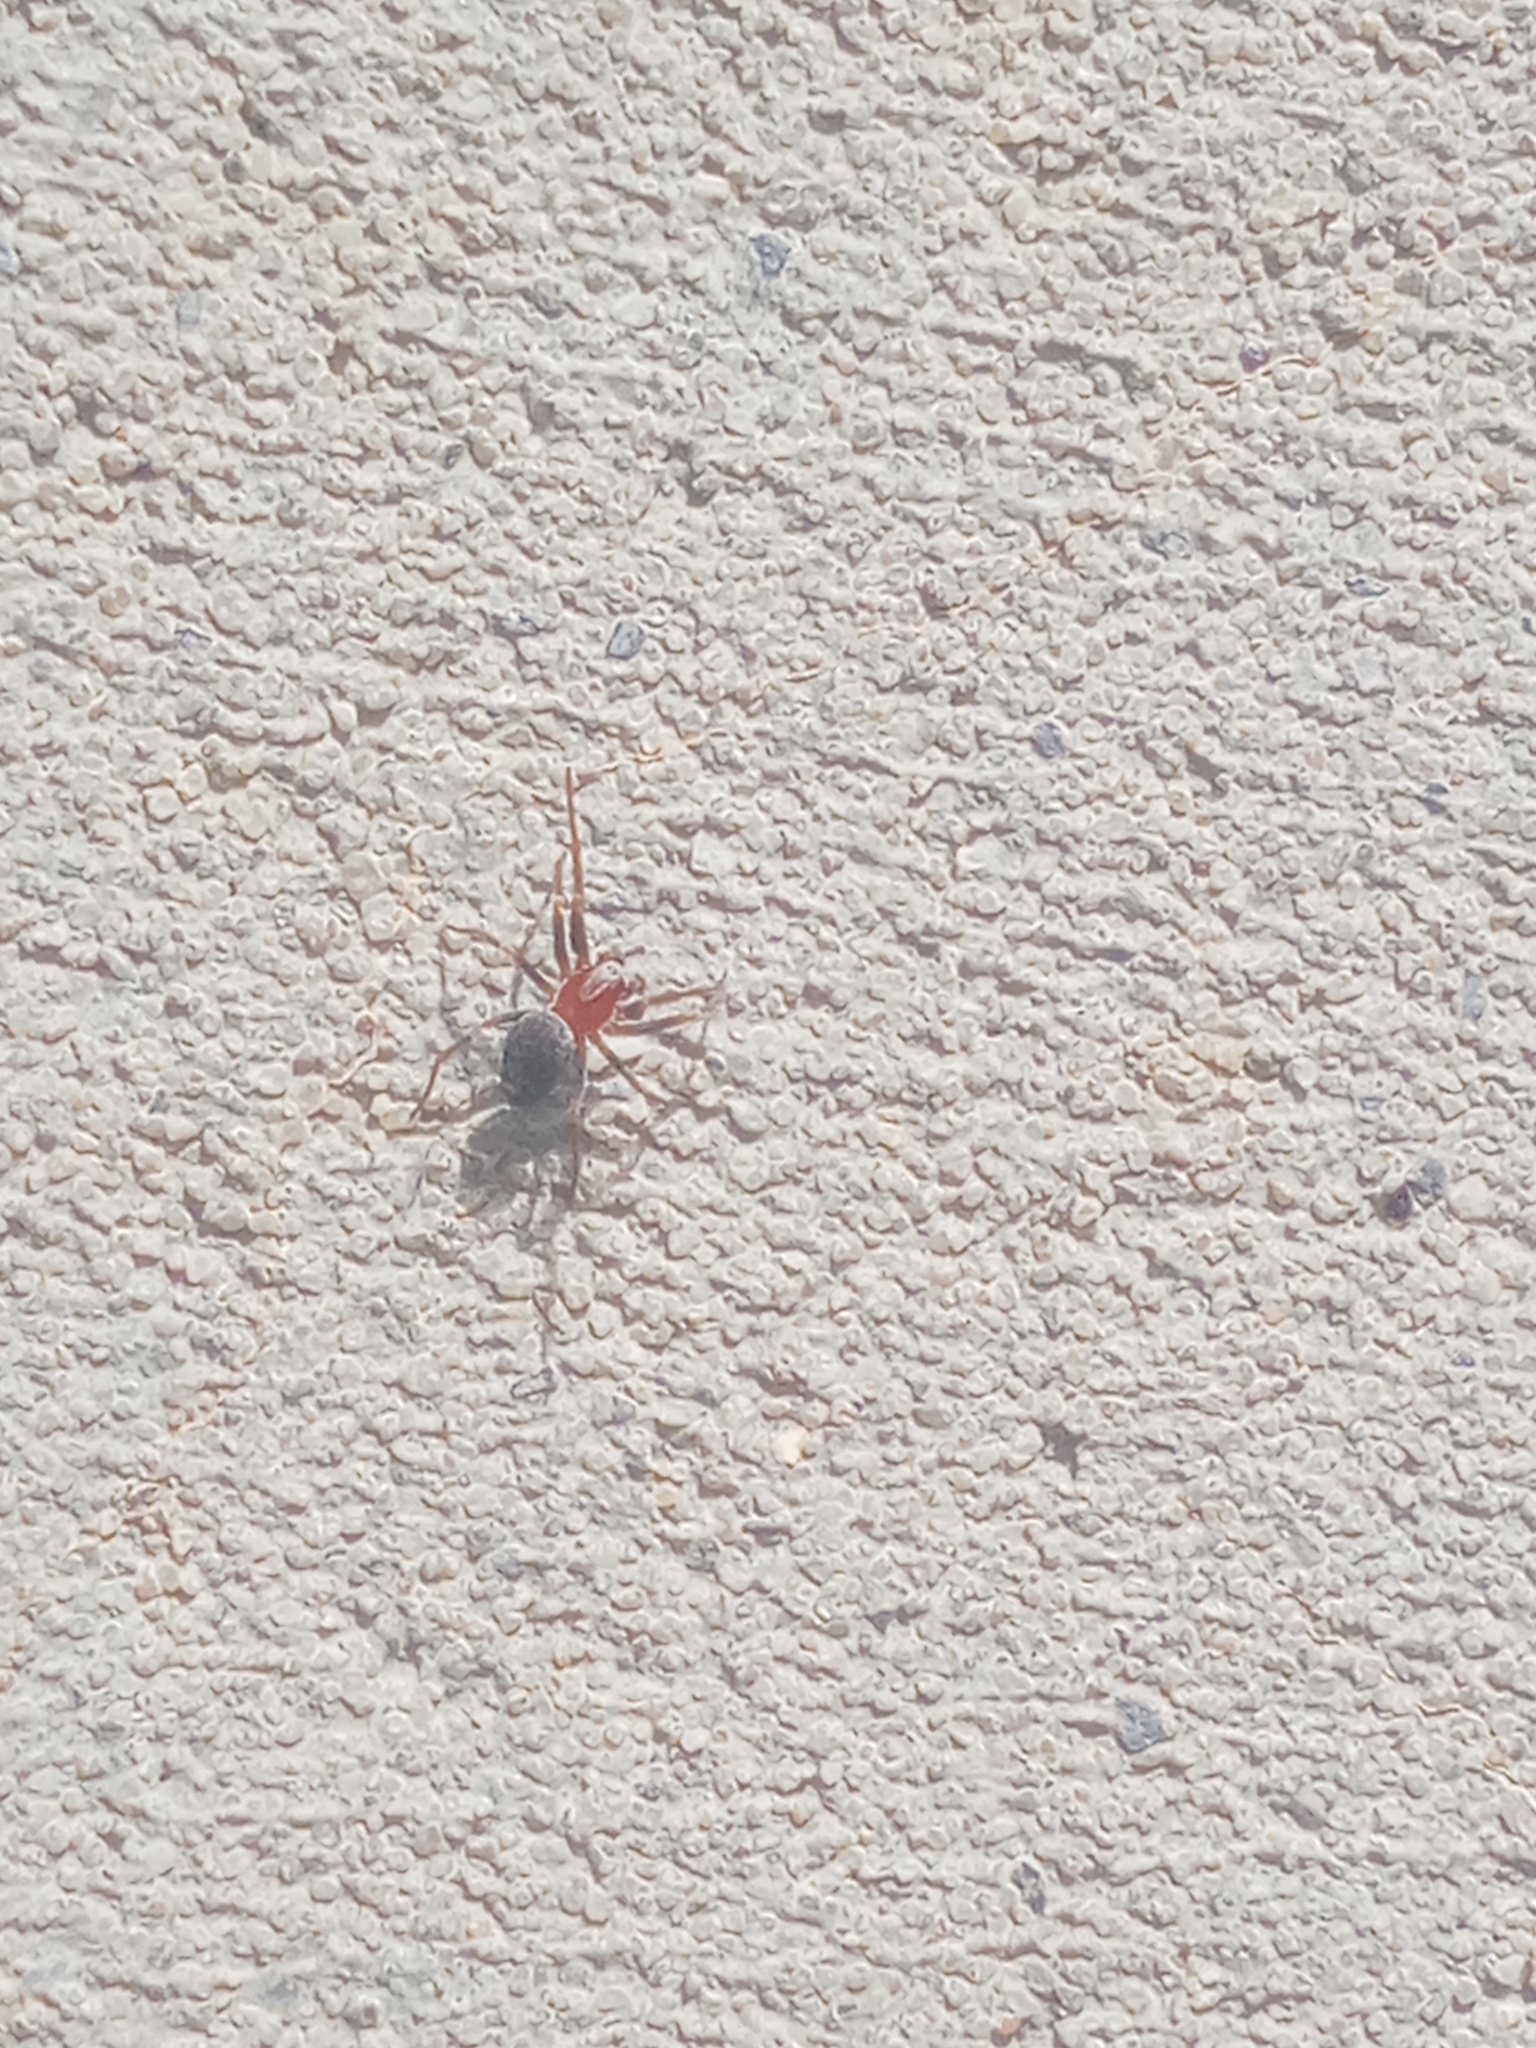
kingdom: Animalia
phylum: Arthropoda
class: Arachnida
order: Araneae
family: Dictynidae
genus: Marilynia
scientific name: Marilynia bicolor
